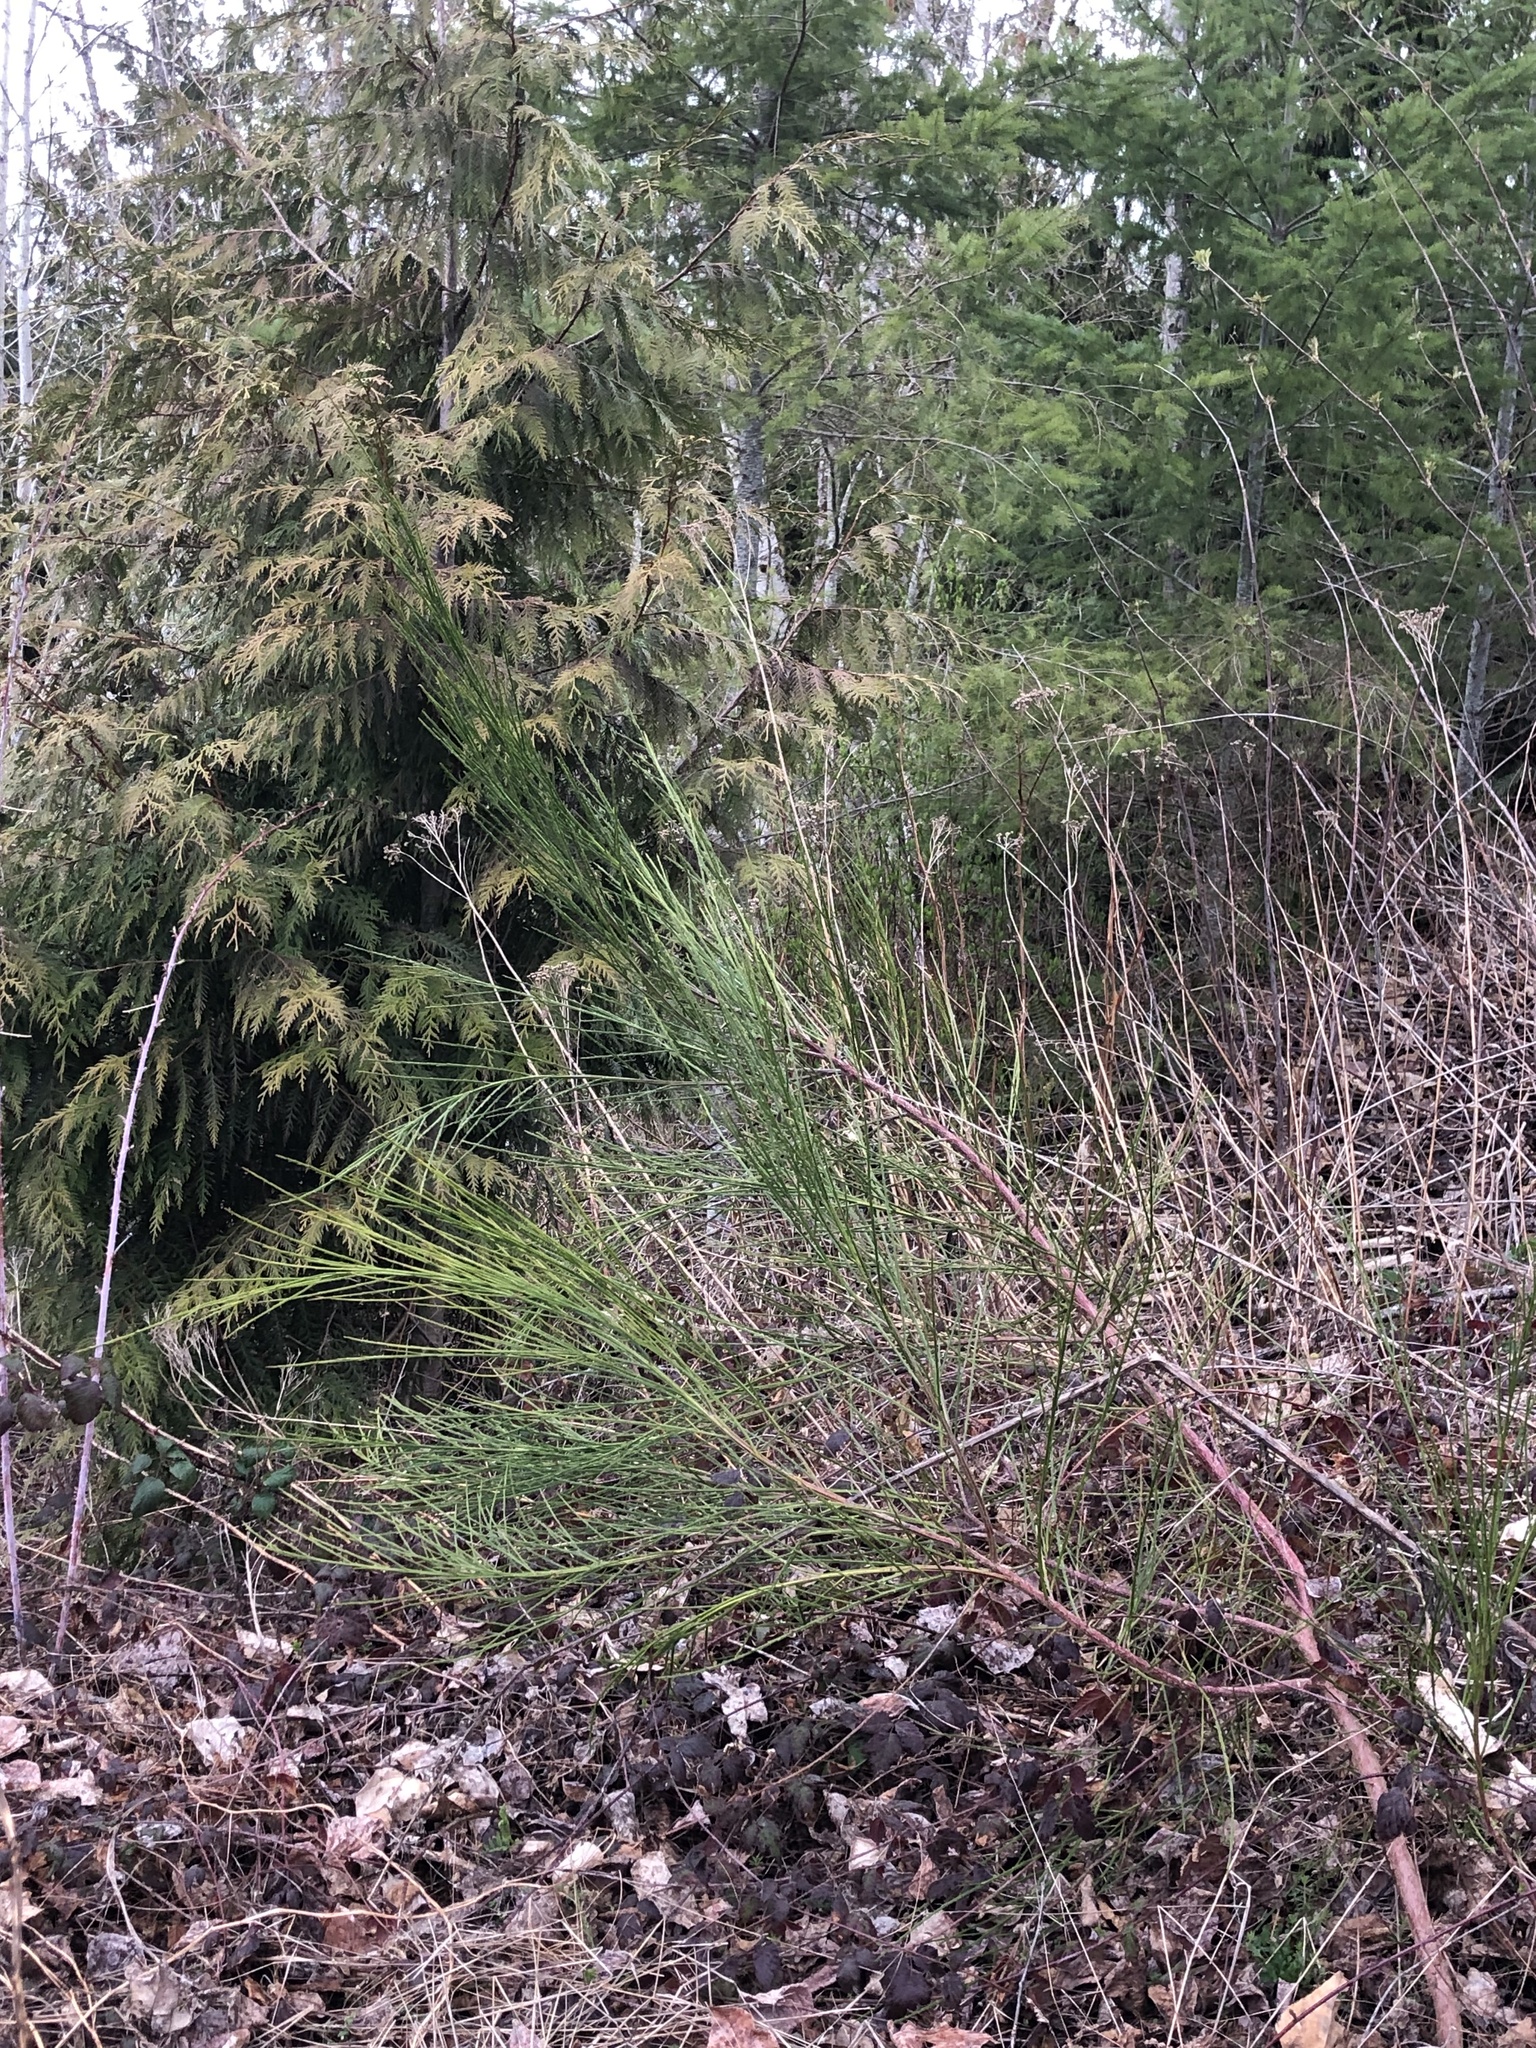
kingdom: Plantae
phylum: Tracheophyta
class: Pinopsida
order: Pinales
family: Cupressaceae
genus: Thuja
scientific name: Thuja plicata
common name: Western red-cedar
